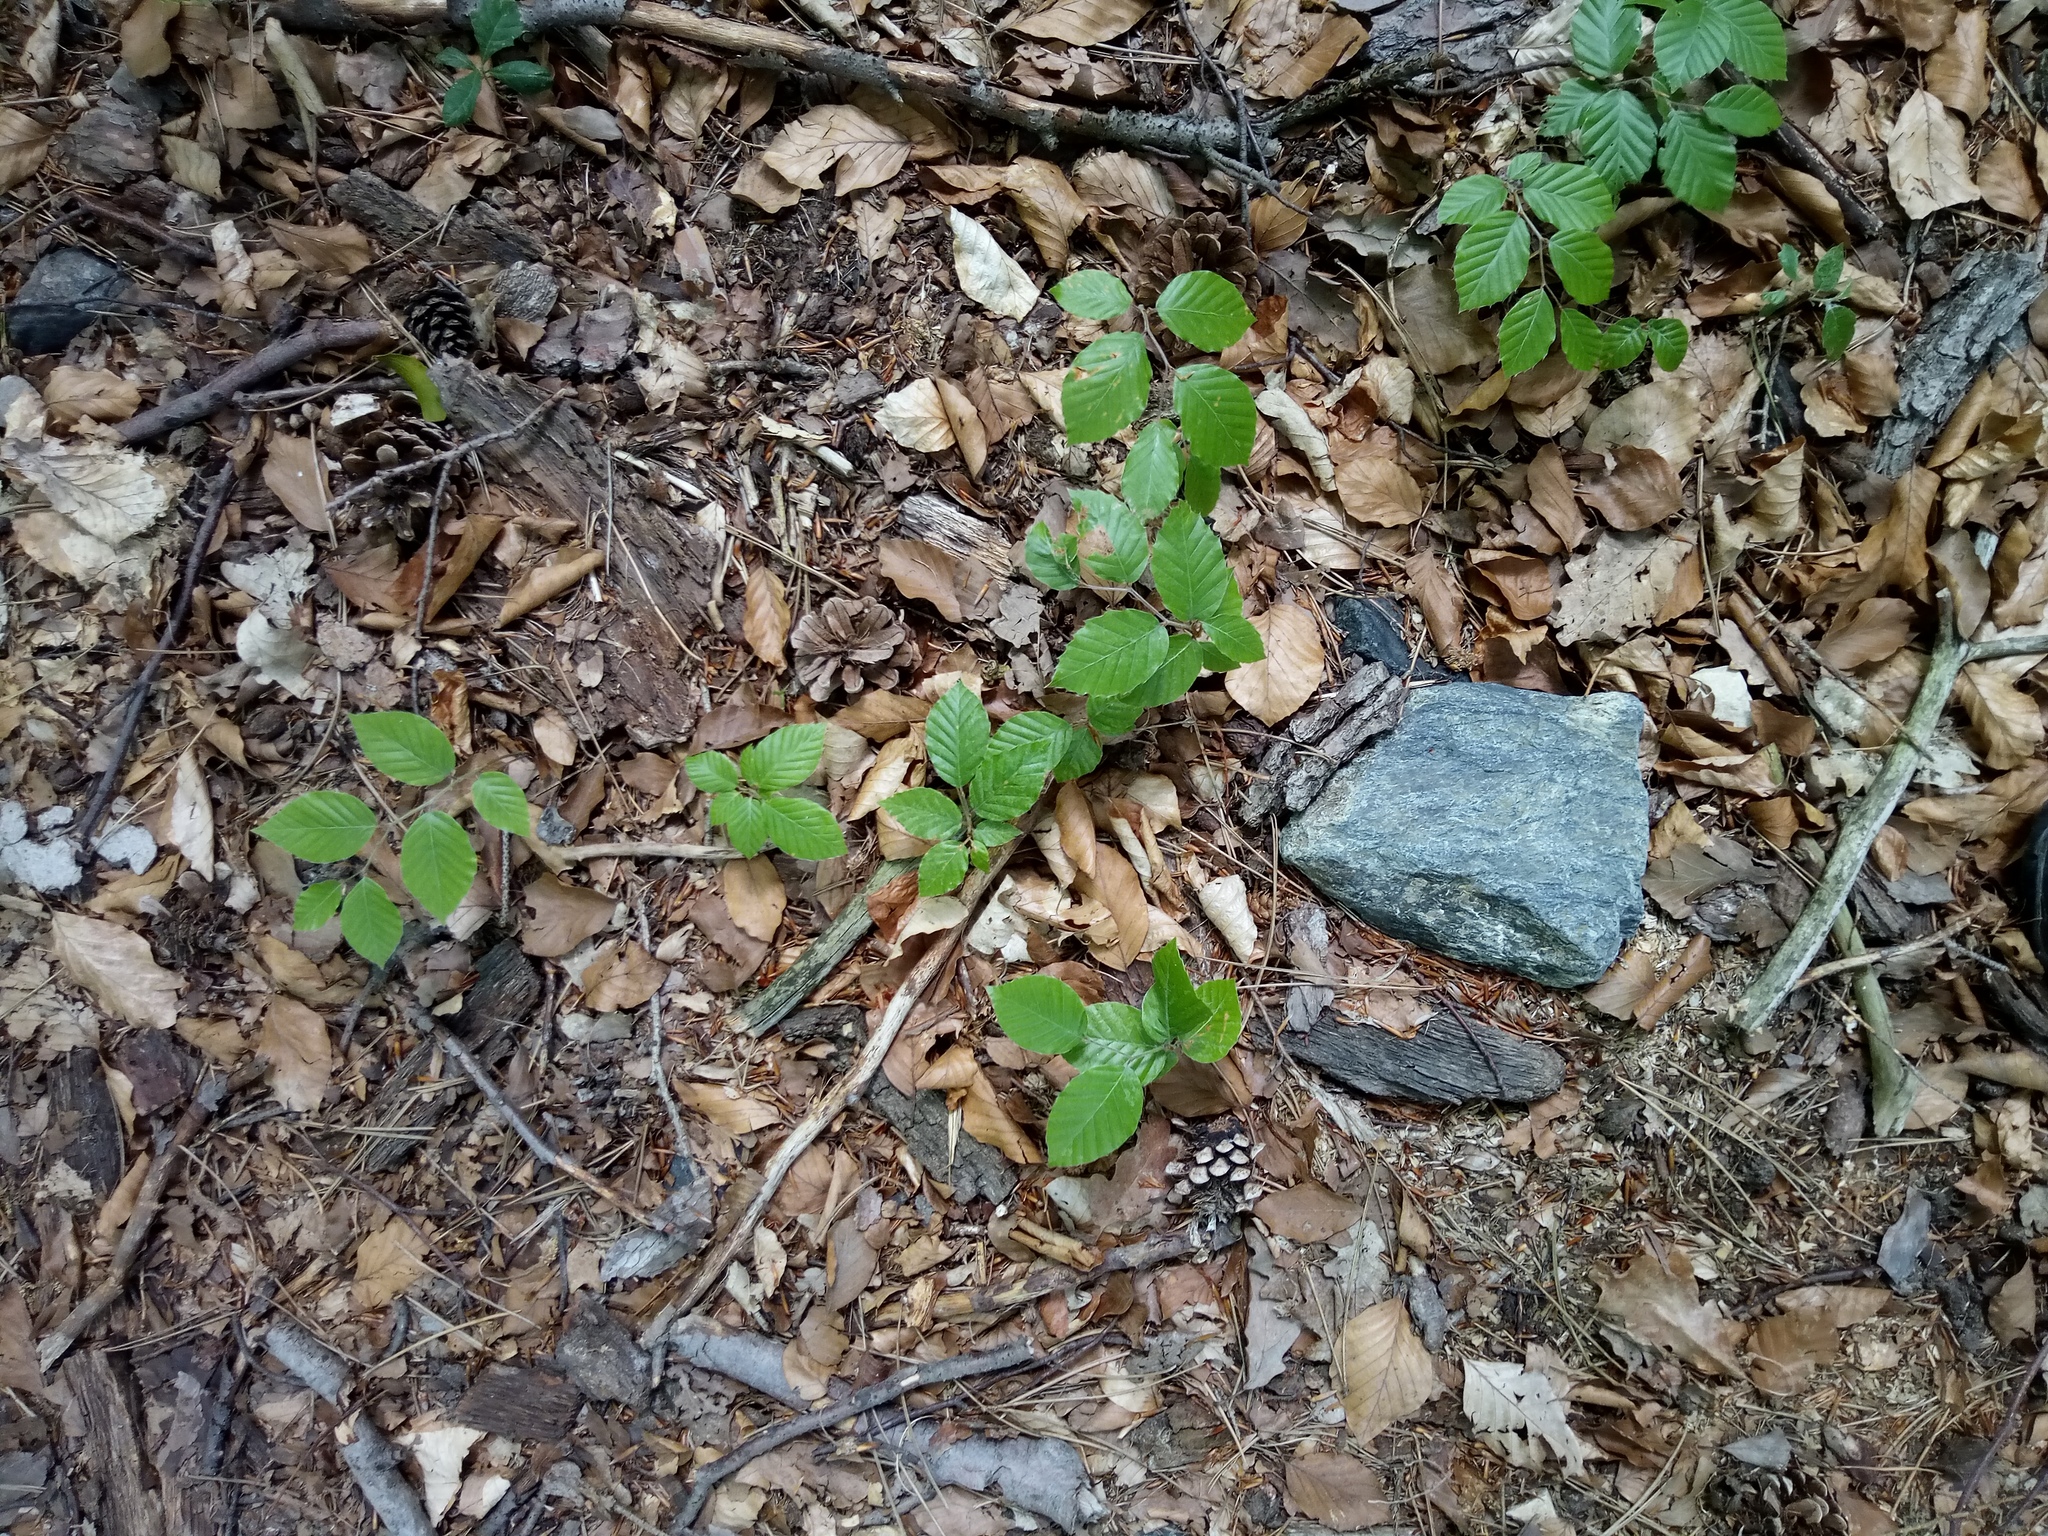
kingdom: Plantae
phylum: Tracheophyta
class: Magnoliopsida
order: Fagales
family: Fagaceae
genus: Fagus
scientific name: Fagus sylvatica
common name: Beech
